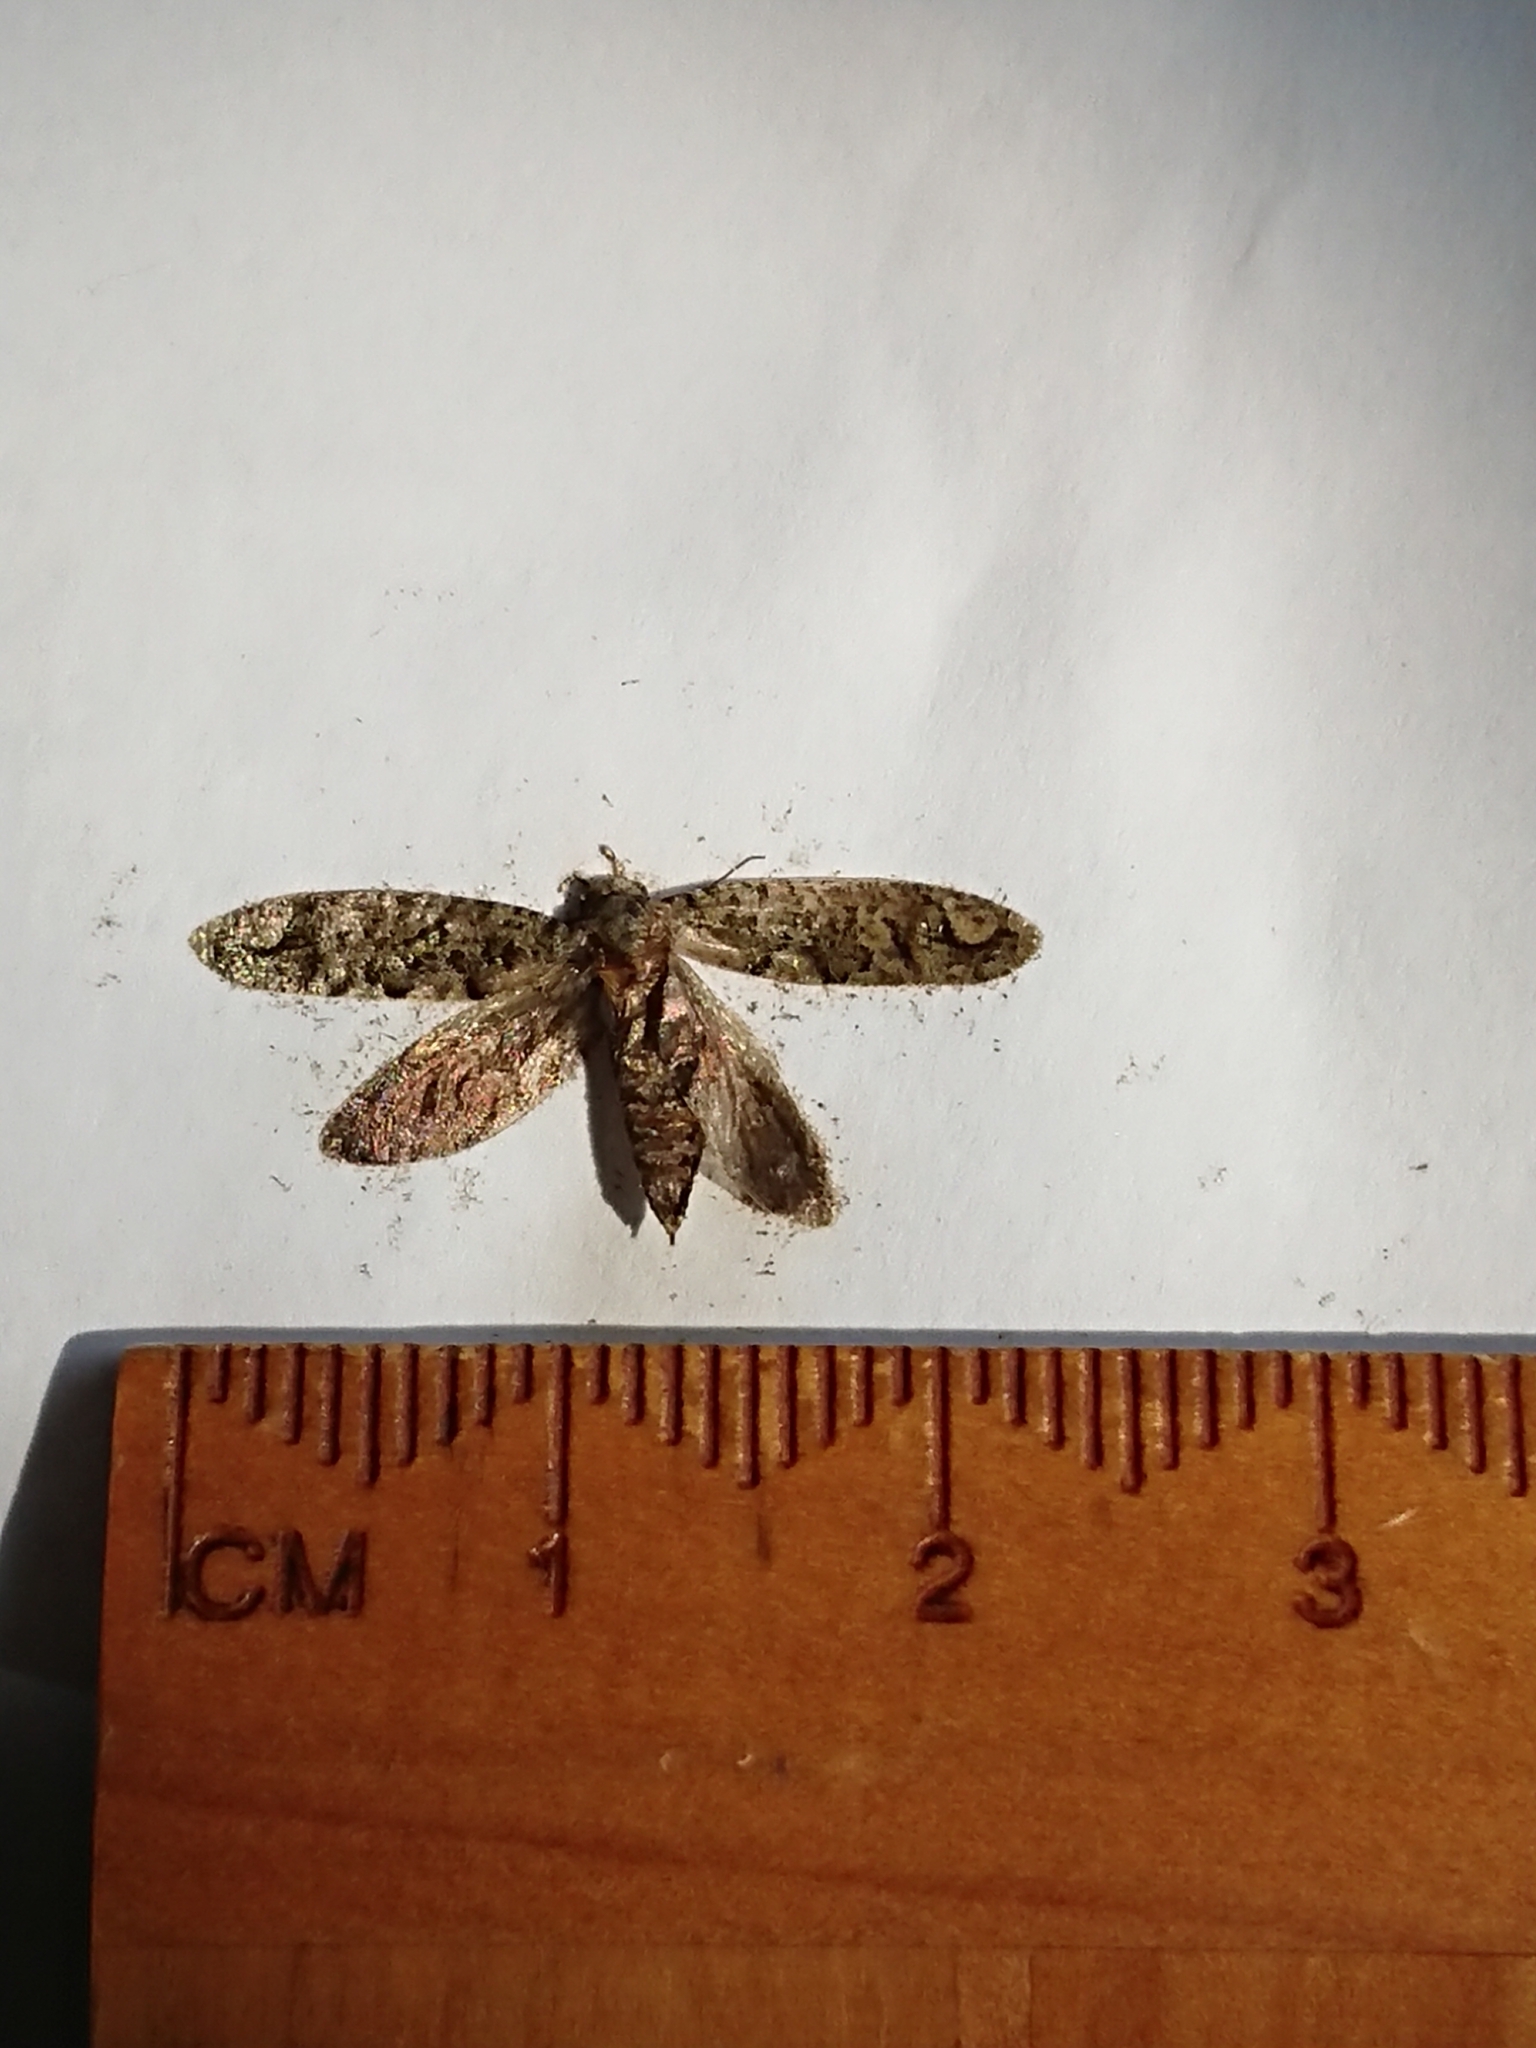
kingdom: Animalia
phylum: Arthropoda
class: Insecta
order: Lepidoptera
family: Tineidae
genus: Lysiphragma
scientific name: Lysiphragma howesii
